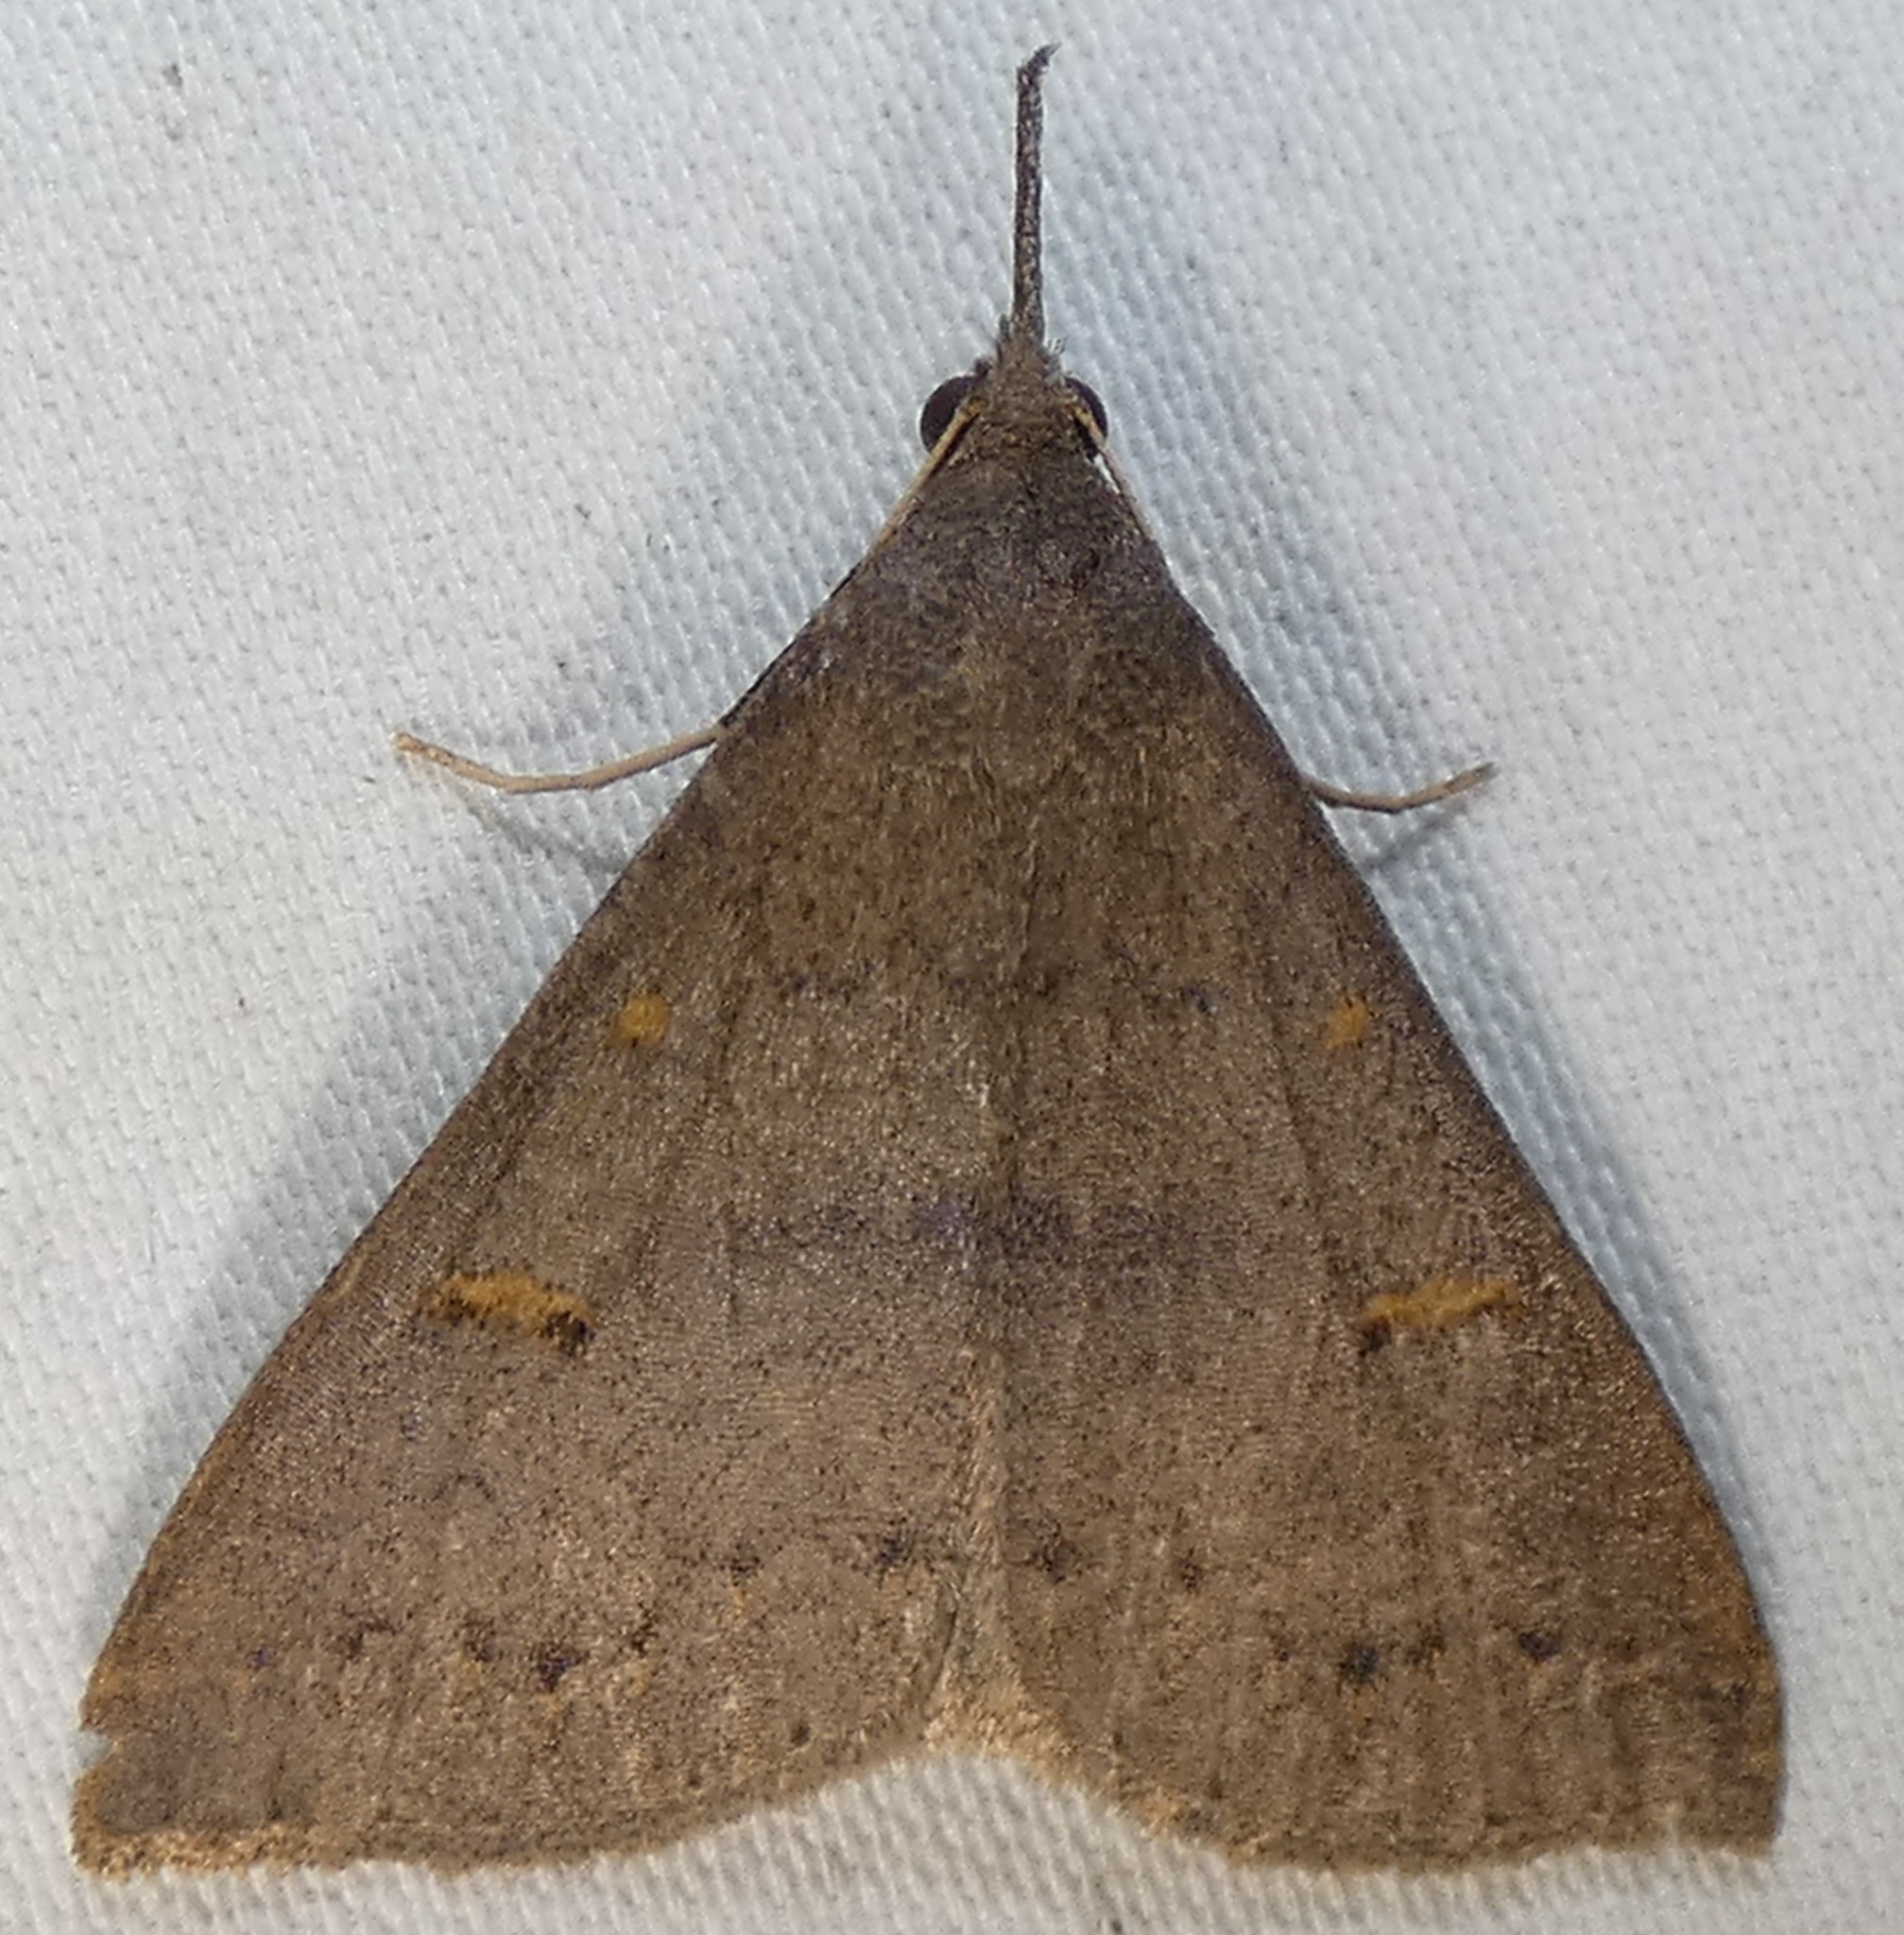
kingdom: Animalia
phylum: Arthropoda
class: Insecta
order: Lepidoptera
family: Erebidae
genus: Renia
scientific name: Renia adspergillus
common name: Speckled renia moth
